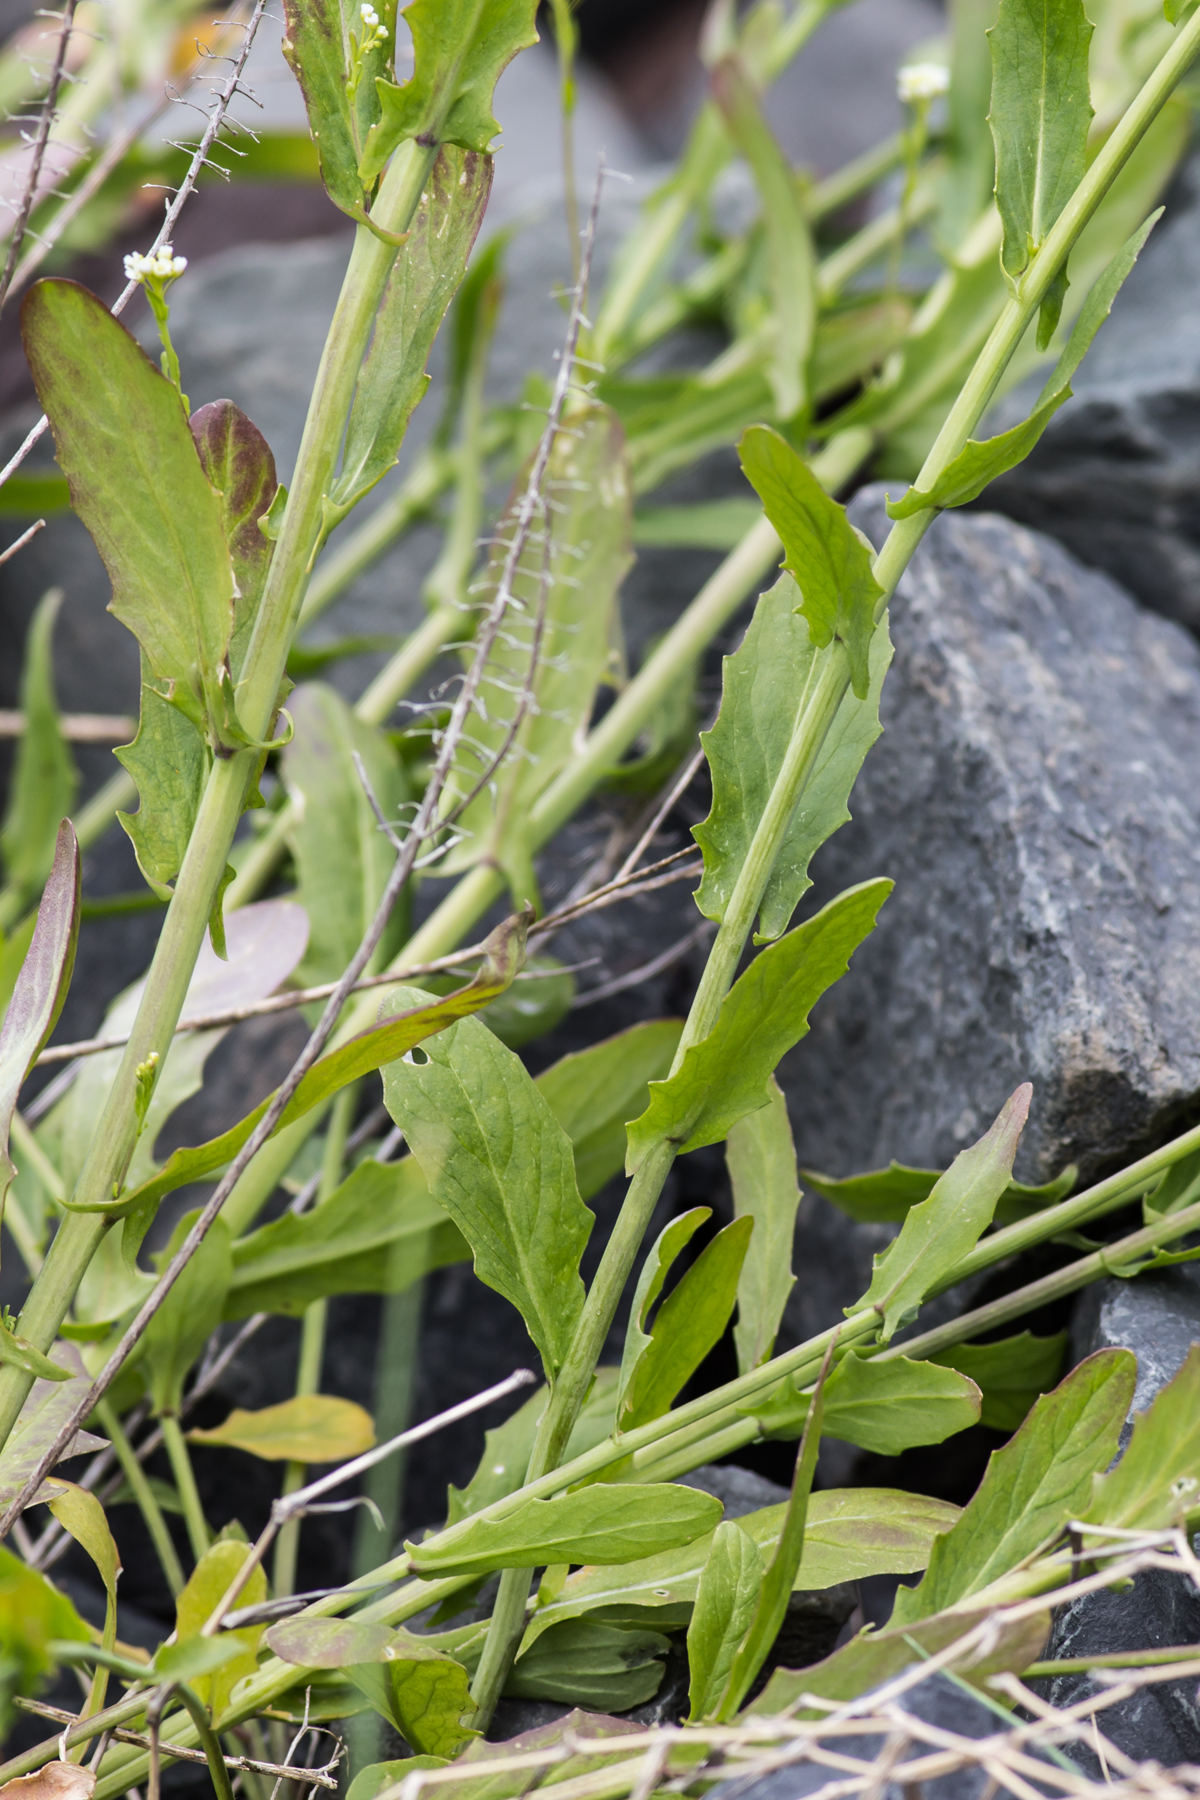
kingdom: Plantae
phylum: Tracheophyta
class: Magnoliopsida
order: Brassicales
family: Brassicaceae
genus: Mummenhoffia
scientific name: Mummenhoffia alliacea
